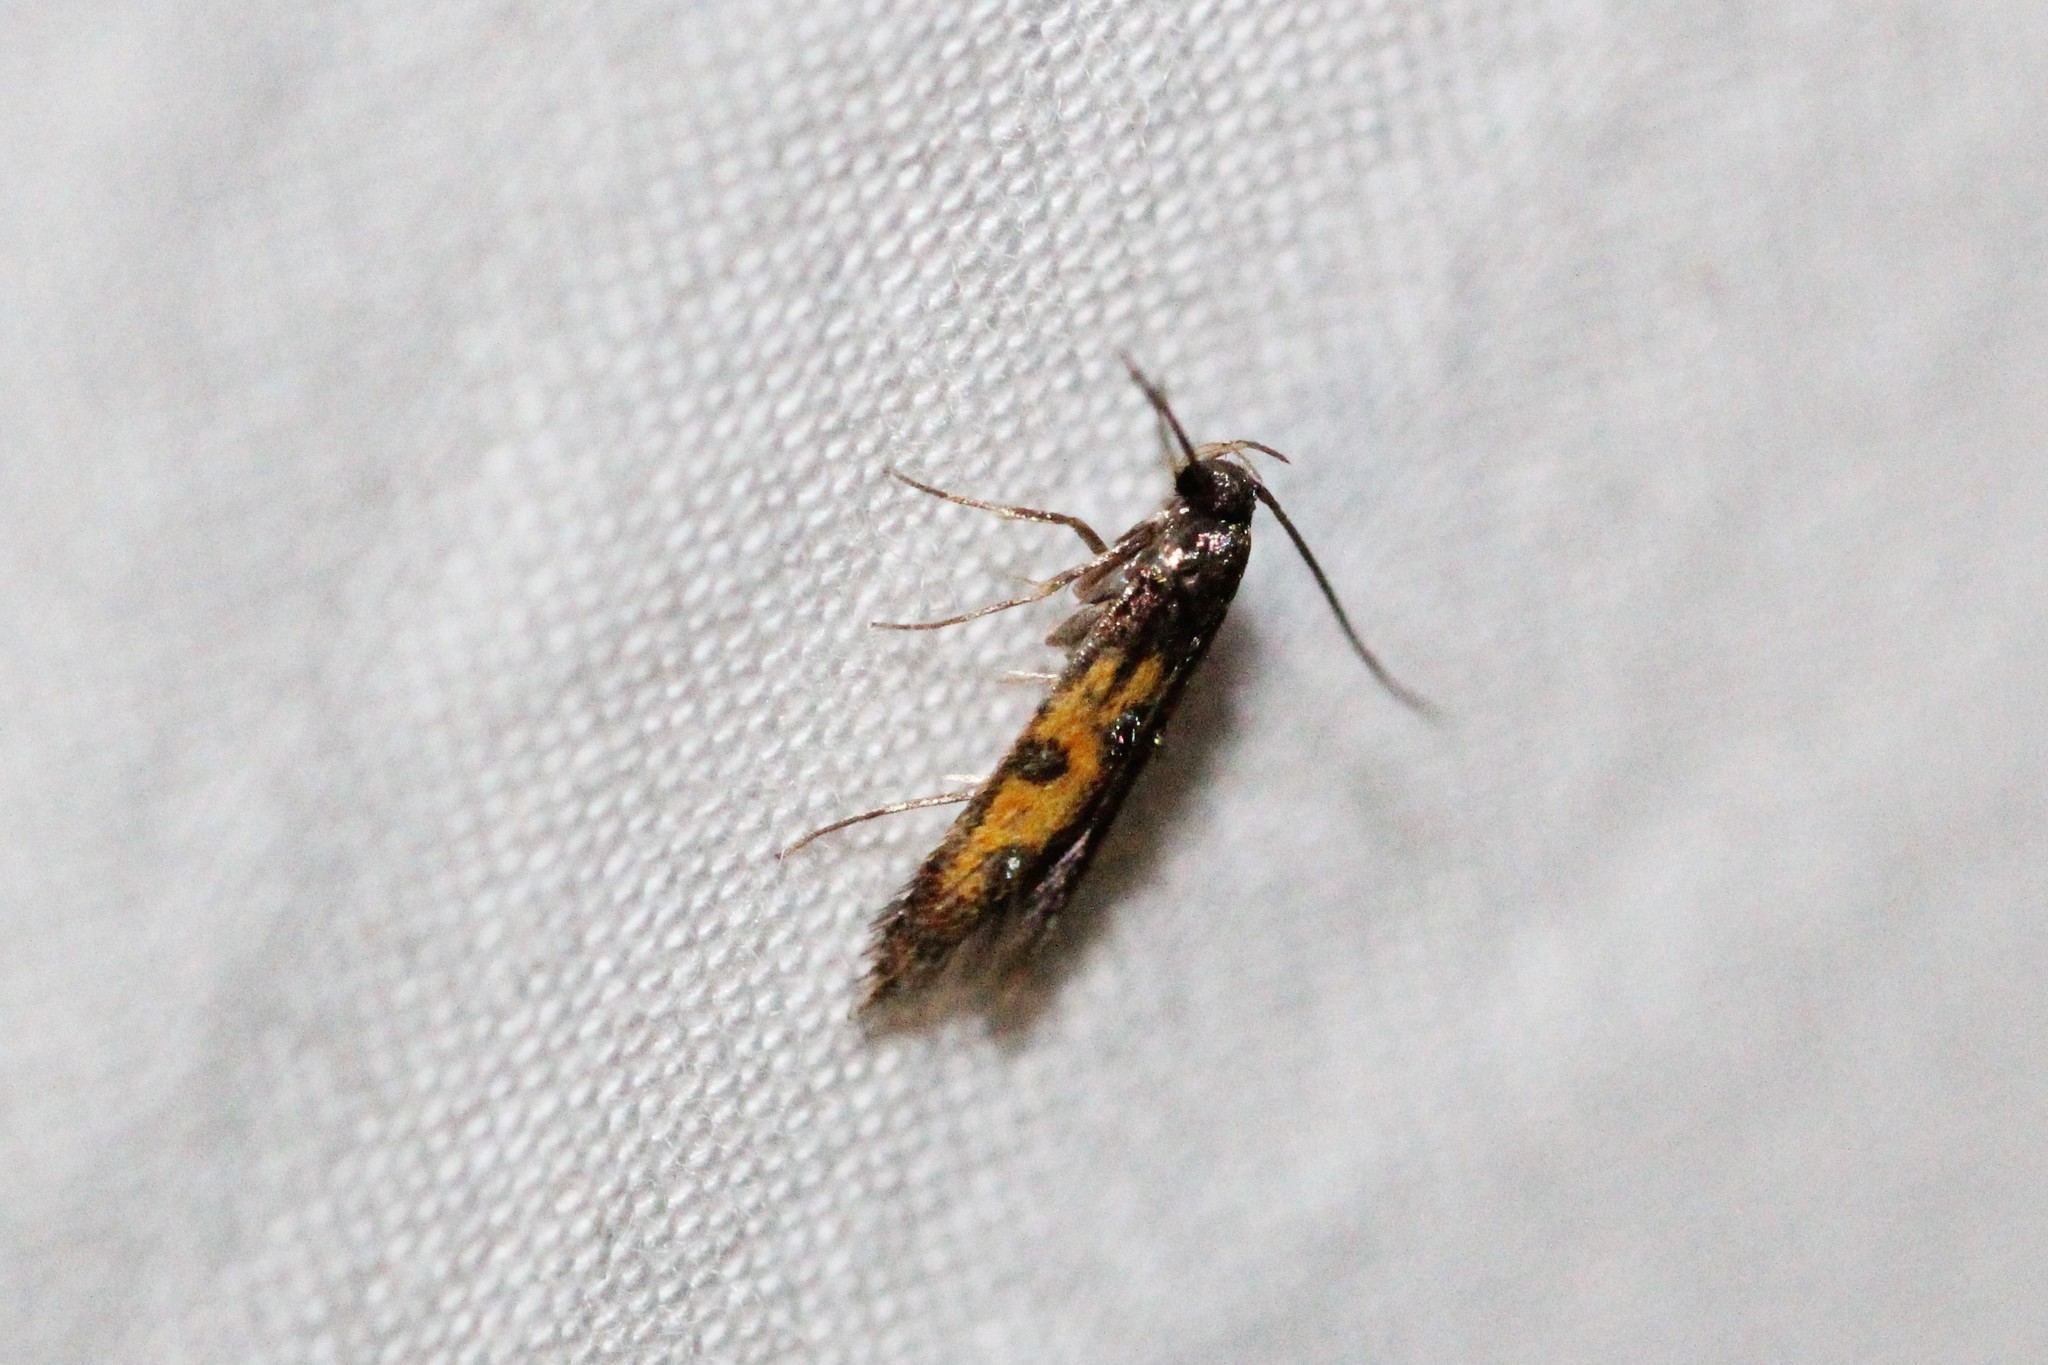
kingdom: Animalia
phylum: Arthropoda
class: Insecta
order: Lepidoptera
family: Elachistidae
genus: Chrysoclista
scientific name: Chrysoclista linneela
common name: Lime cosmet
